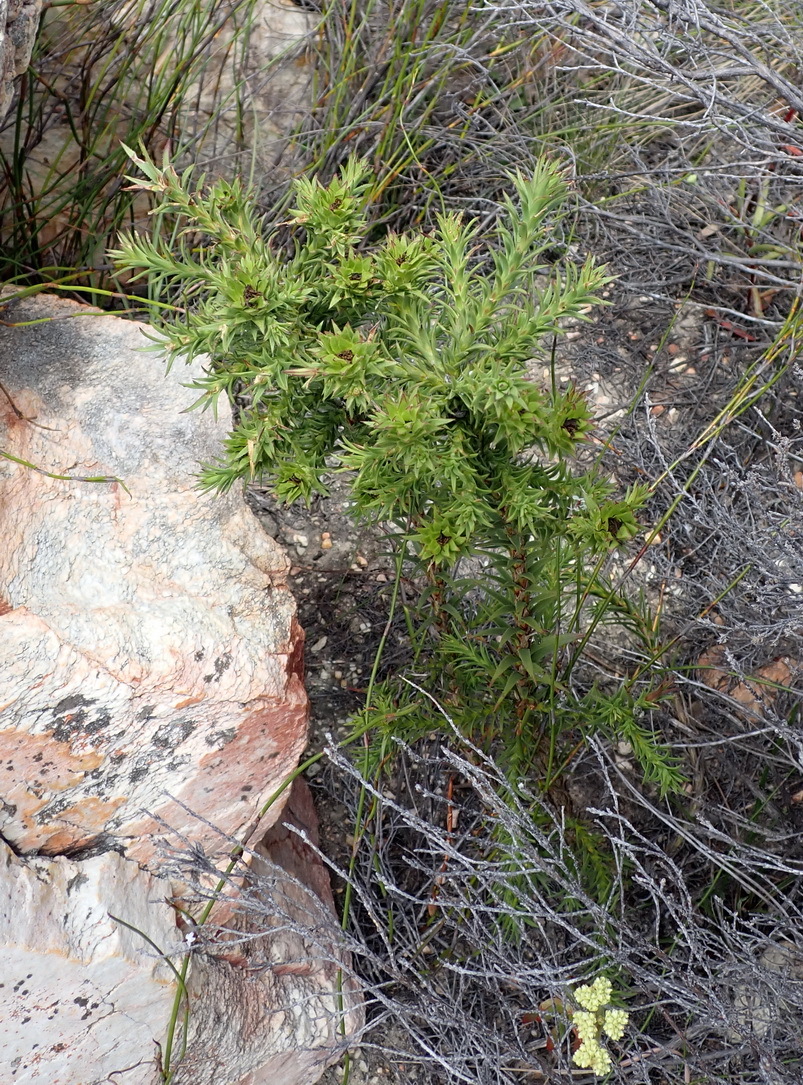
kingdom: Plantae
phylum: Tracheophyta
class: Magnoliopsida
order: Asterales
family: Asteraceae
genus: Oedera
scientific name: Oedera imbricata
